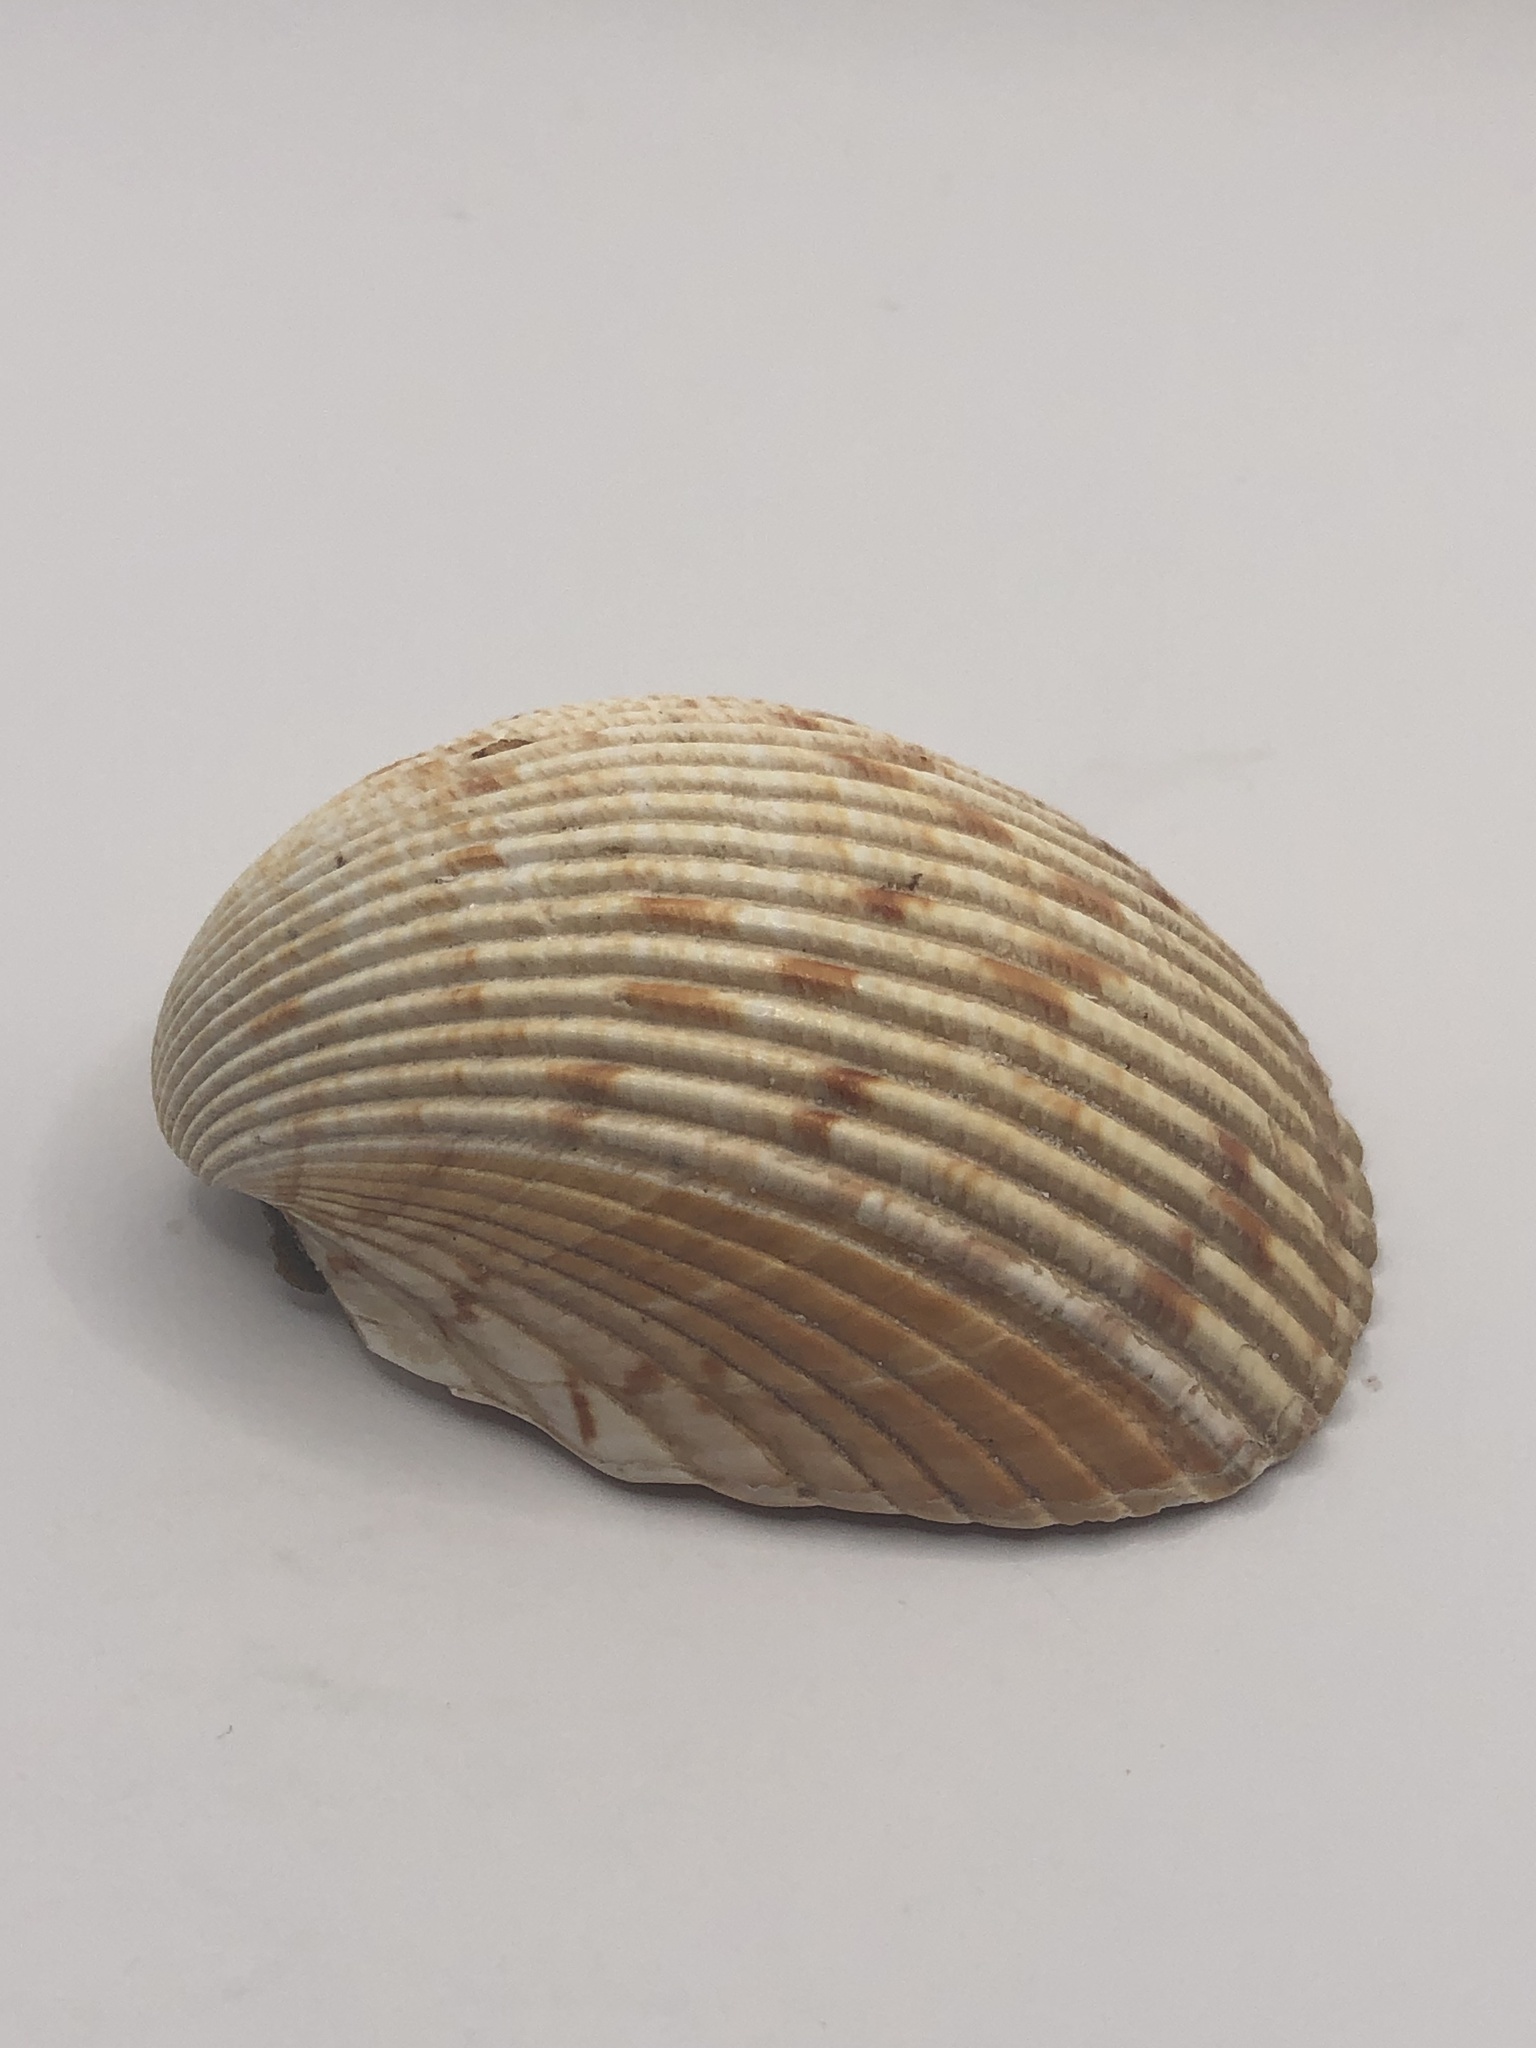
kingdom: Animalia
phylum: Mollusca
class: Bivalvia
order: Cardiida
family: Cardiidae
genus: Dinocardium
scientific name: Dinocardium robustum
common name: Atlantic giant cockle
